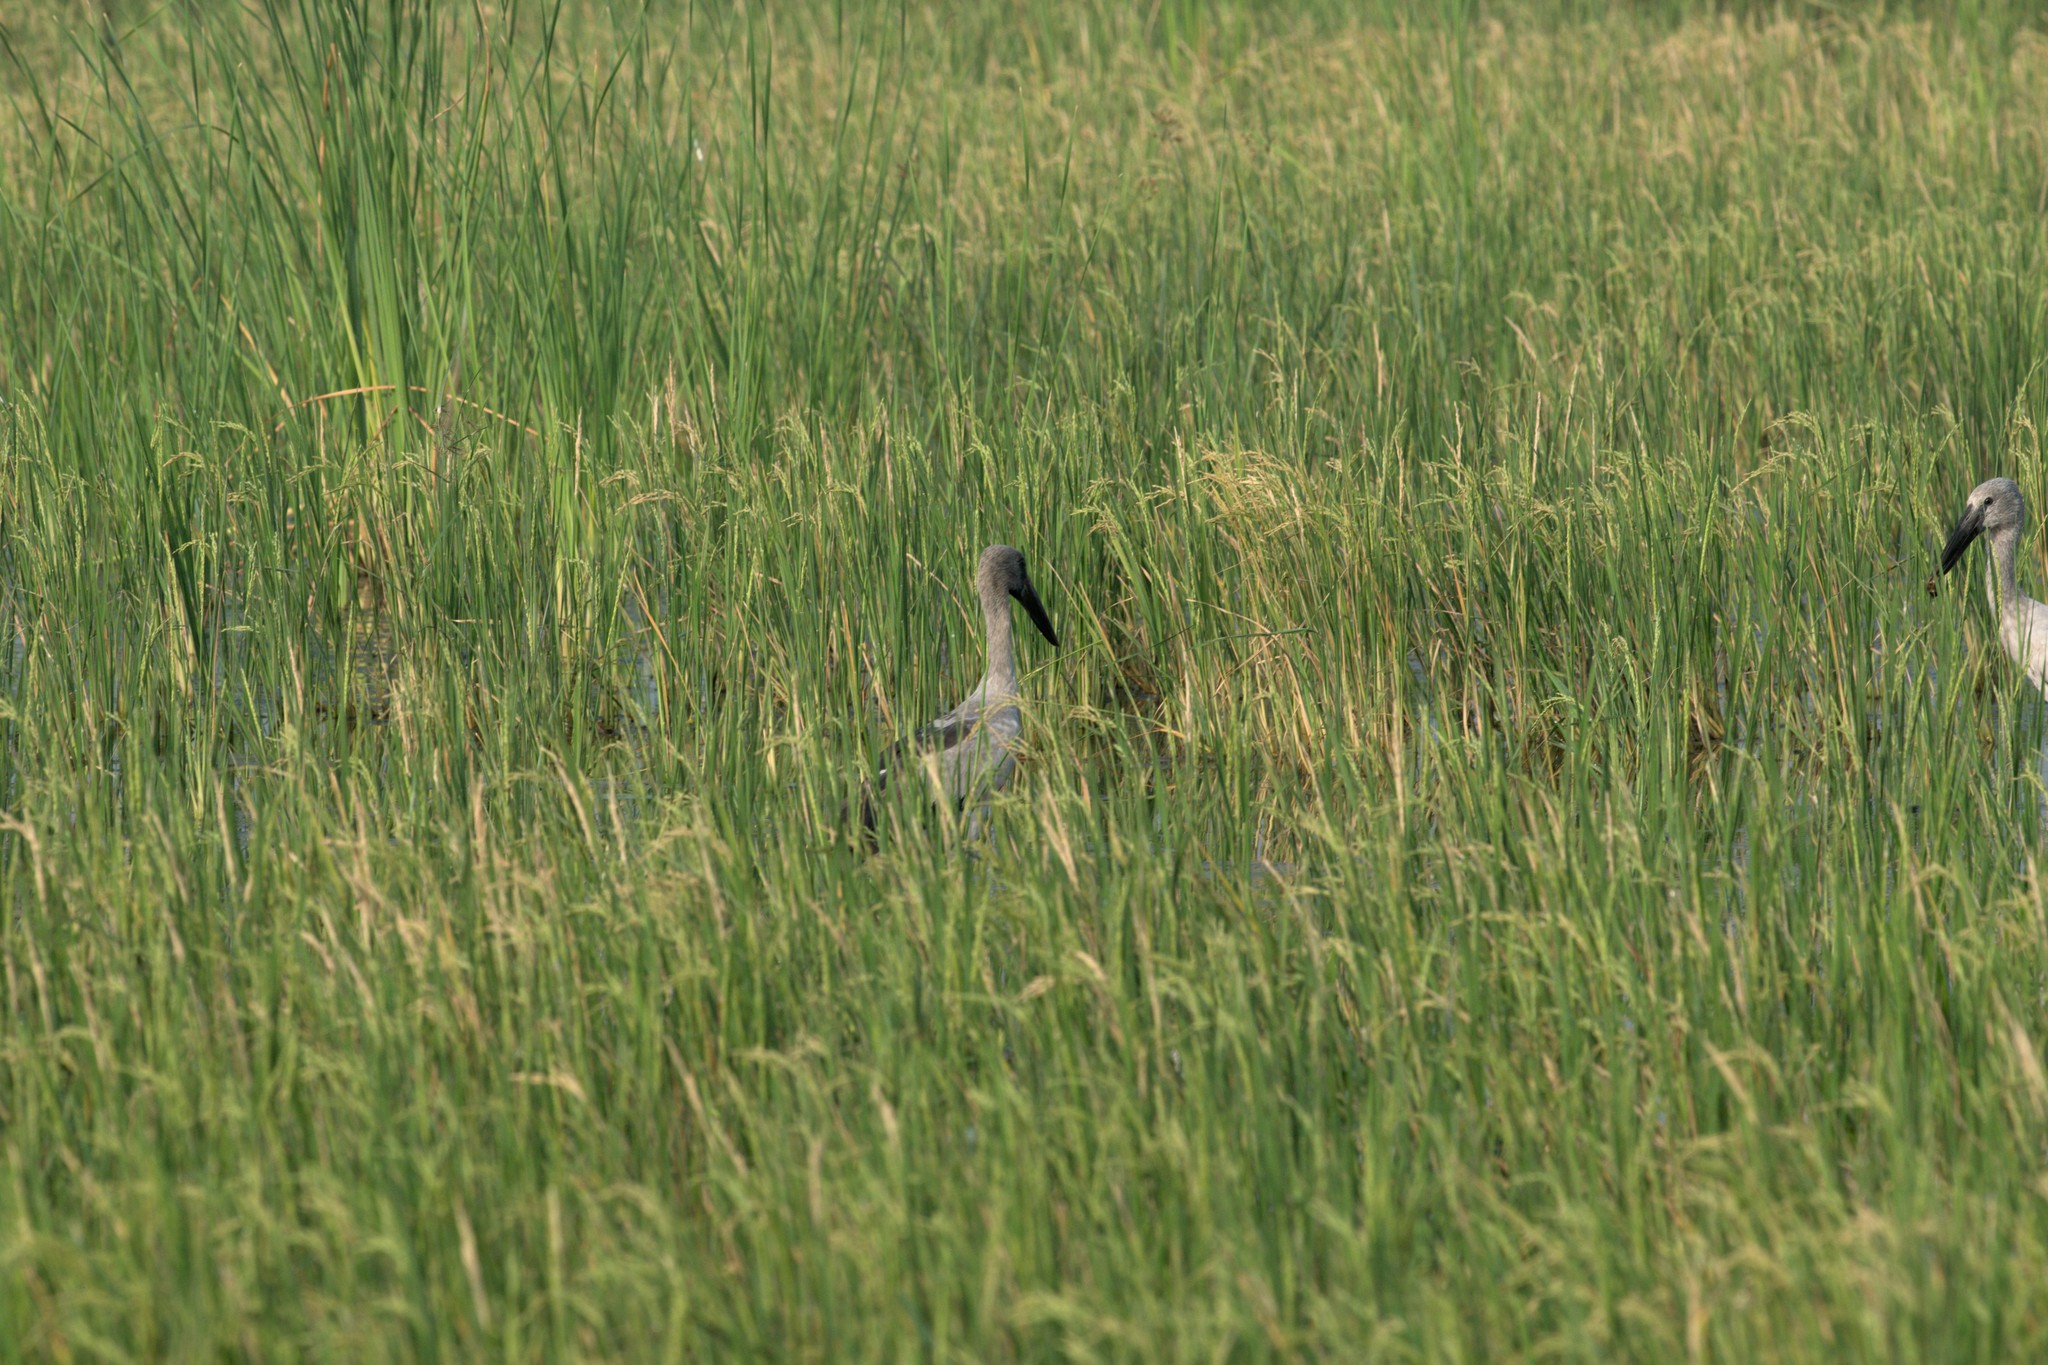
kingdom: Animalia
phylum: Chordata
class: Aves
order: Ciconiiformes
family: Ciconiidae
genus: Anastomus
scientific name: Anastomus oscitans
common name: Asian openbill
